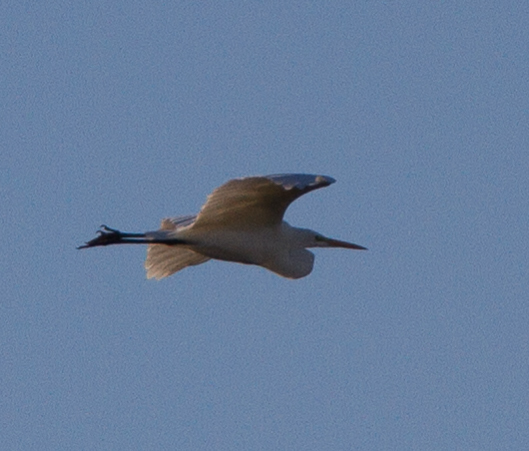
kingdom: Animalia
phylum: Chordata
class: Aves
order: Pelecaniformes
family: Ardeidae
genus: Ardea
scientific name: Ardea alba
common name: Great egret
